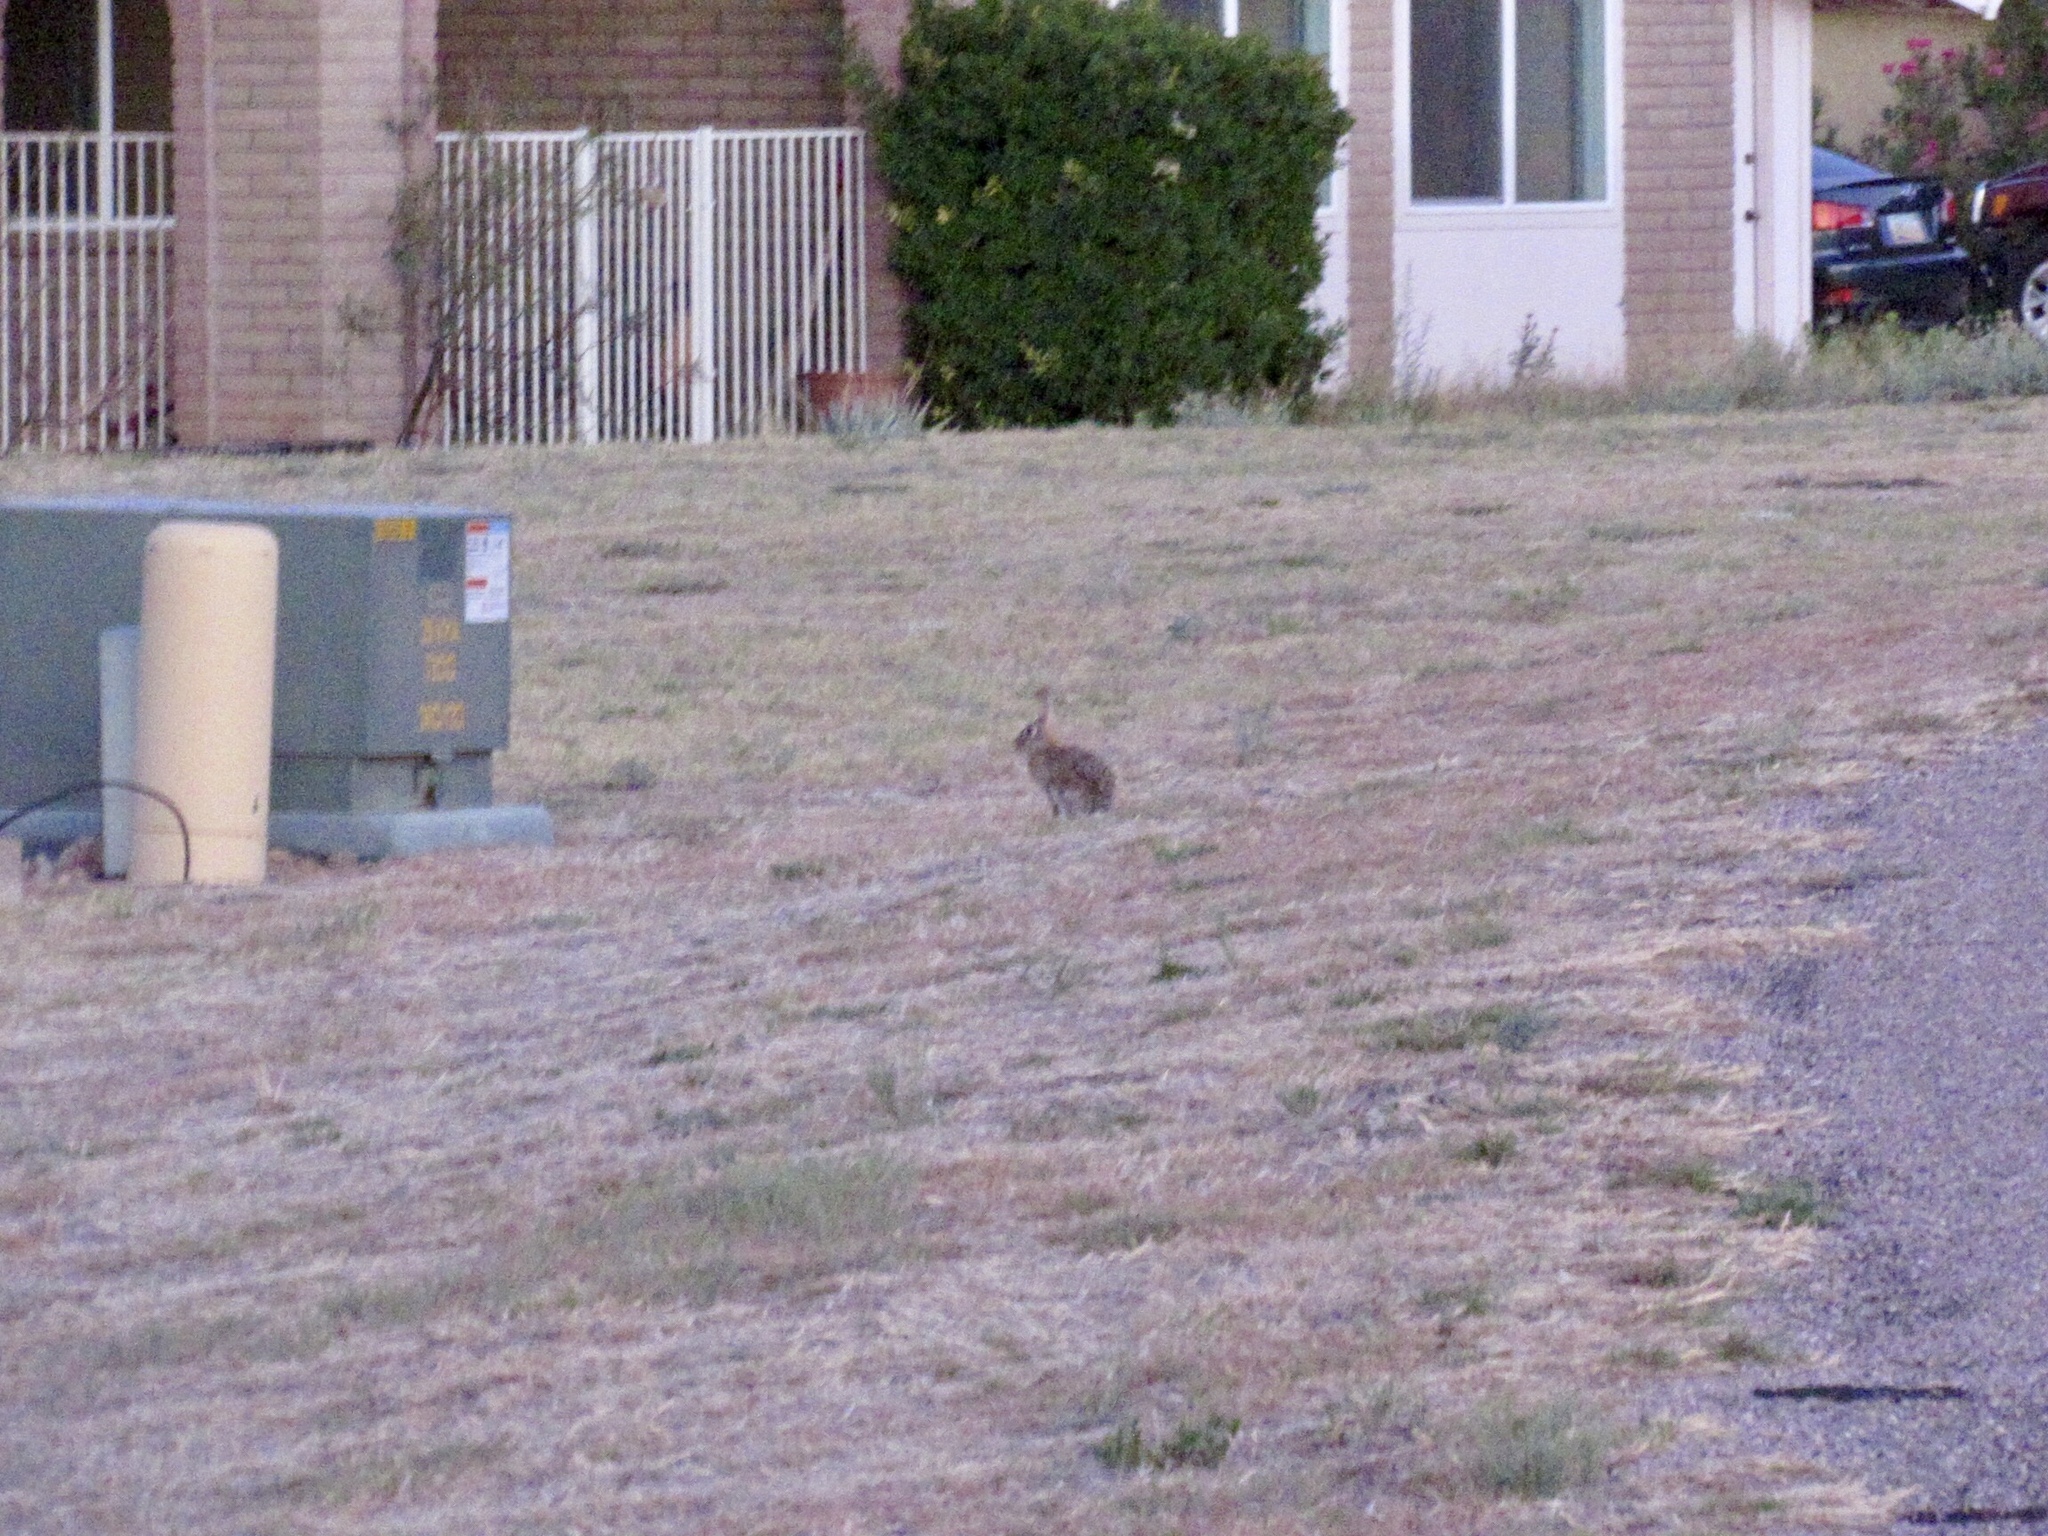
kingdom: Animalia
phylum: Chordata
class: Mammalia
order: Lagomorpha
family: Leporidae
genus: Sylvilagus
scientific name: Sylvilagus audubonii
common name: Desert cottontail
